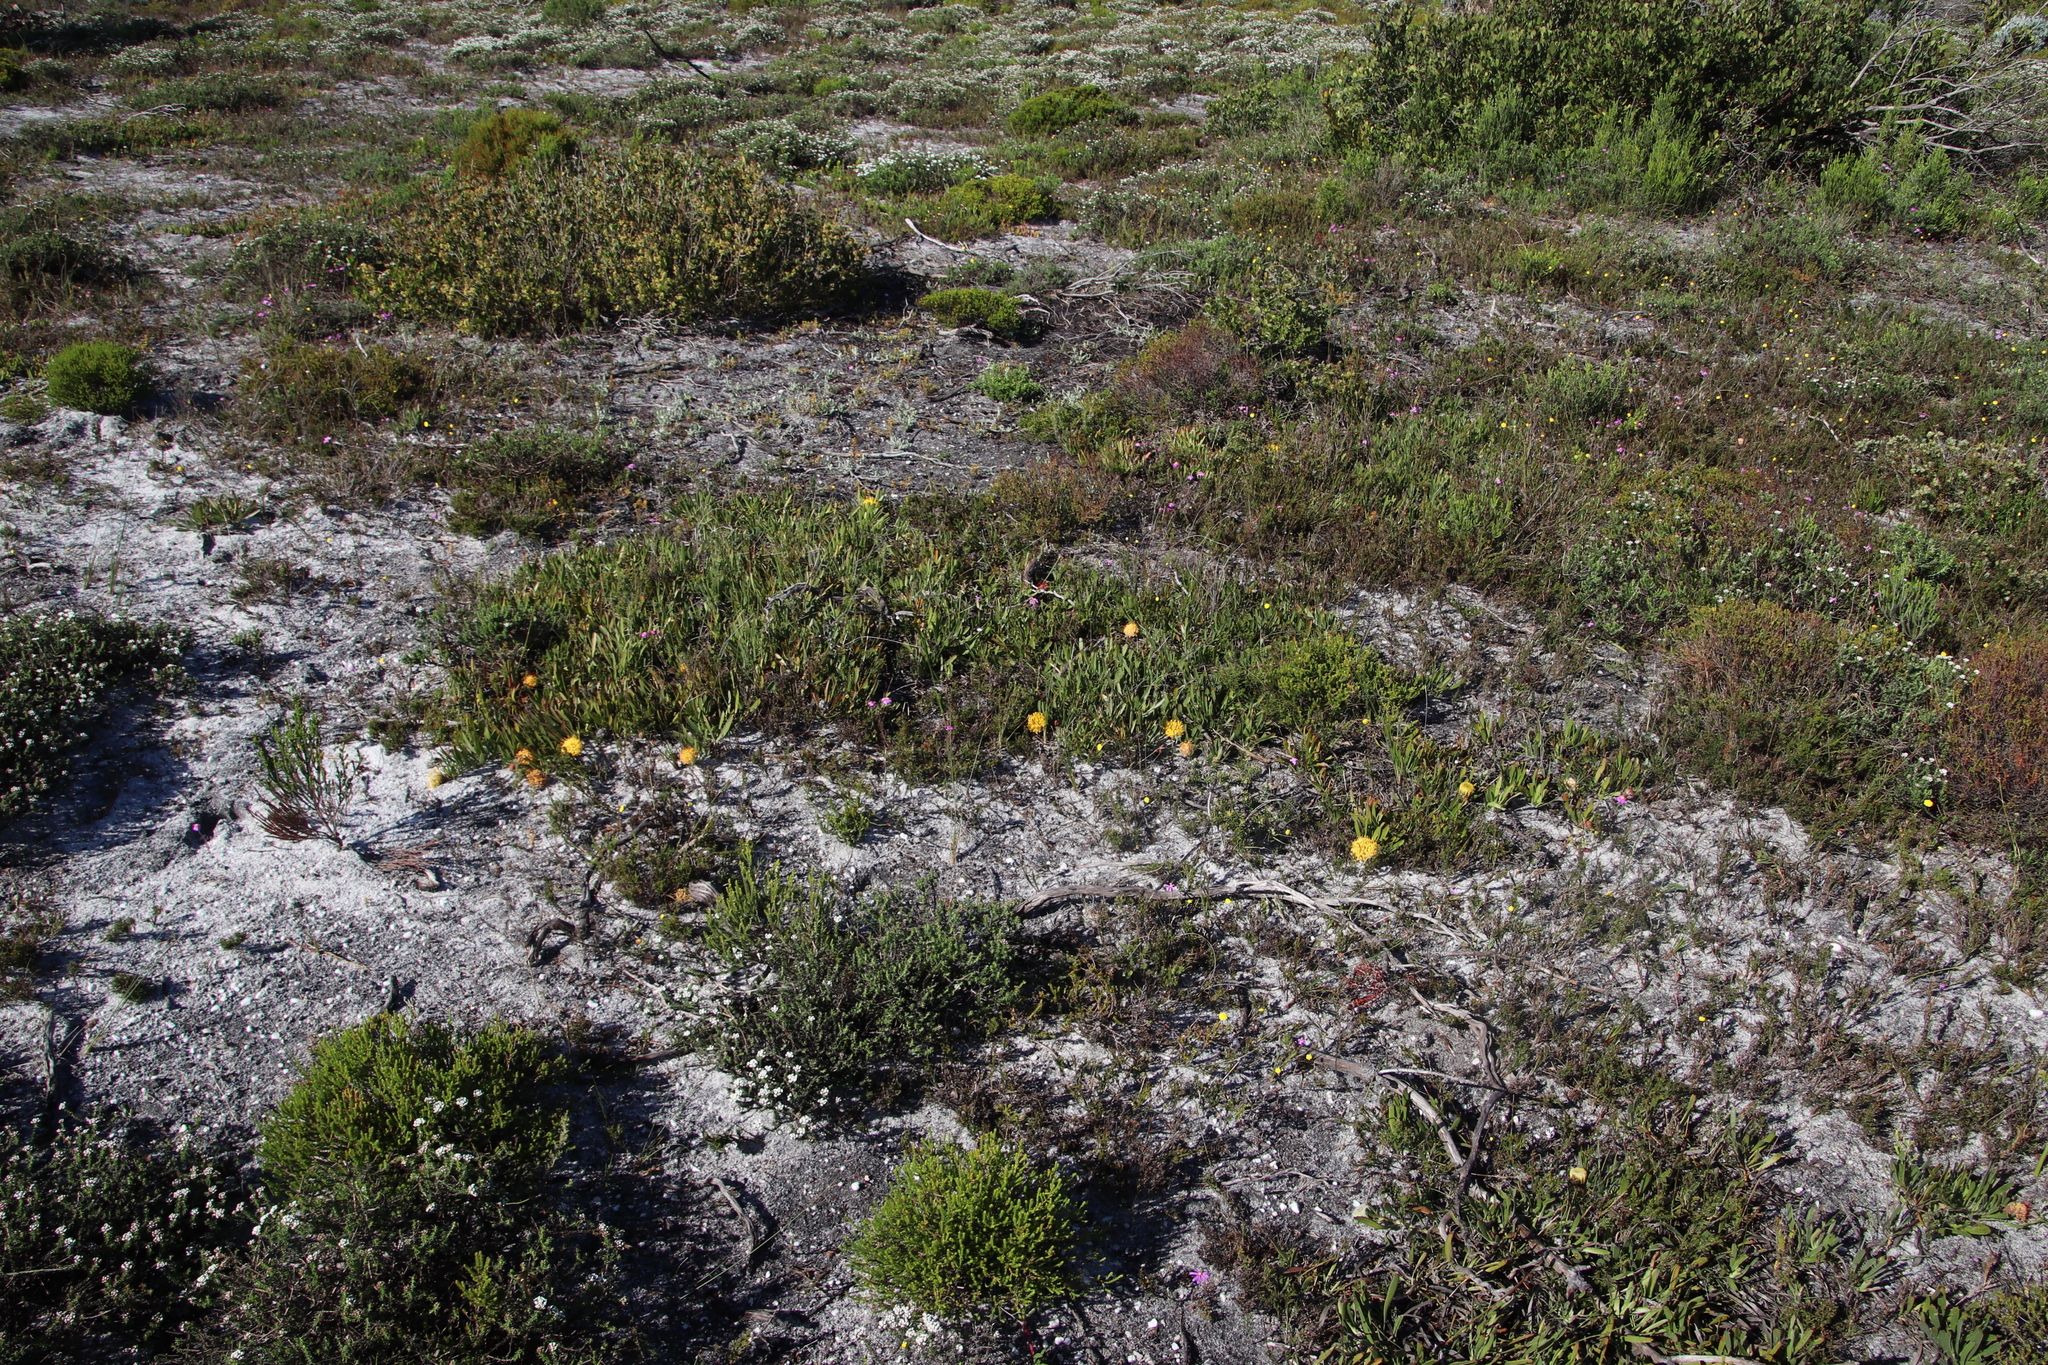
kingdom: Plantae
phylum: Tracheophyta
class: Magnoliopsida
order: Proteales
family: Proteaceae
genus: Leucospermum
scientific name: Leucospermum hypophyllocarpodendron
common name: Snakestem pincushion
